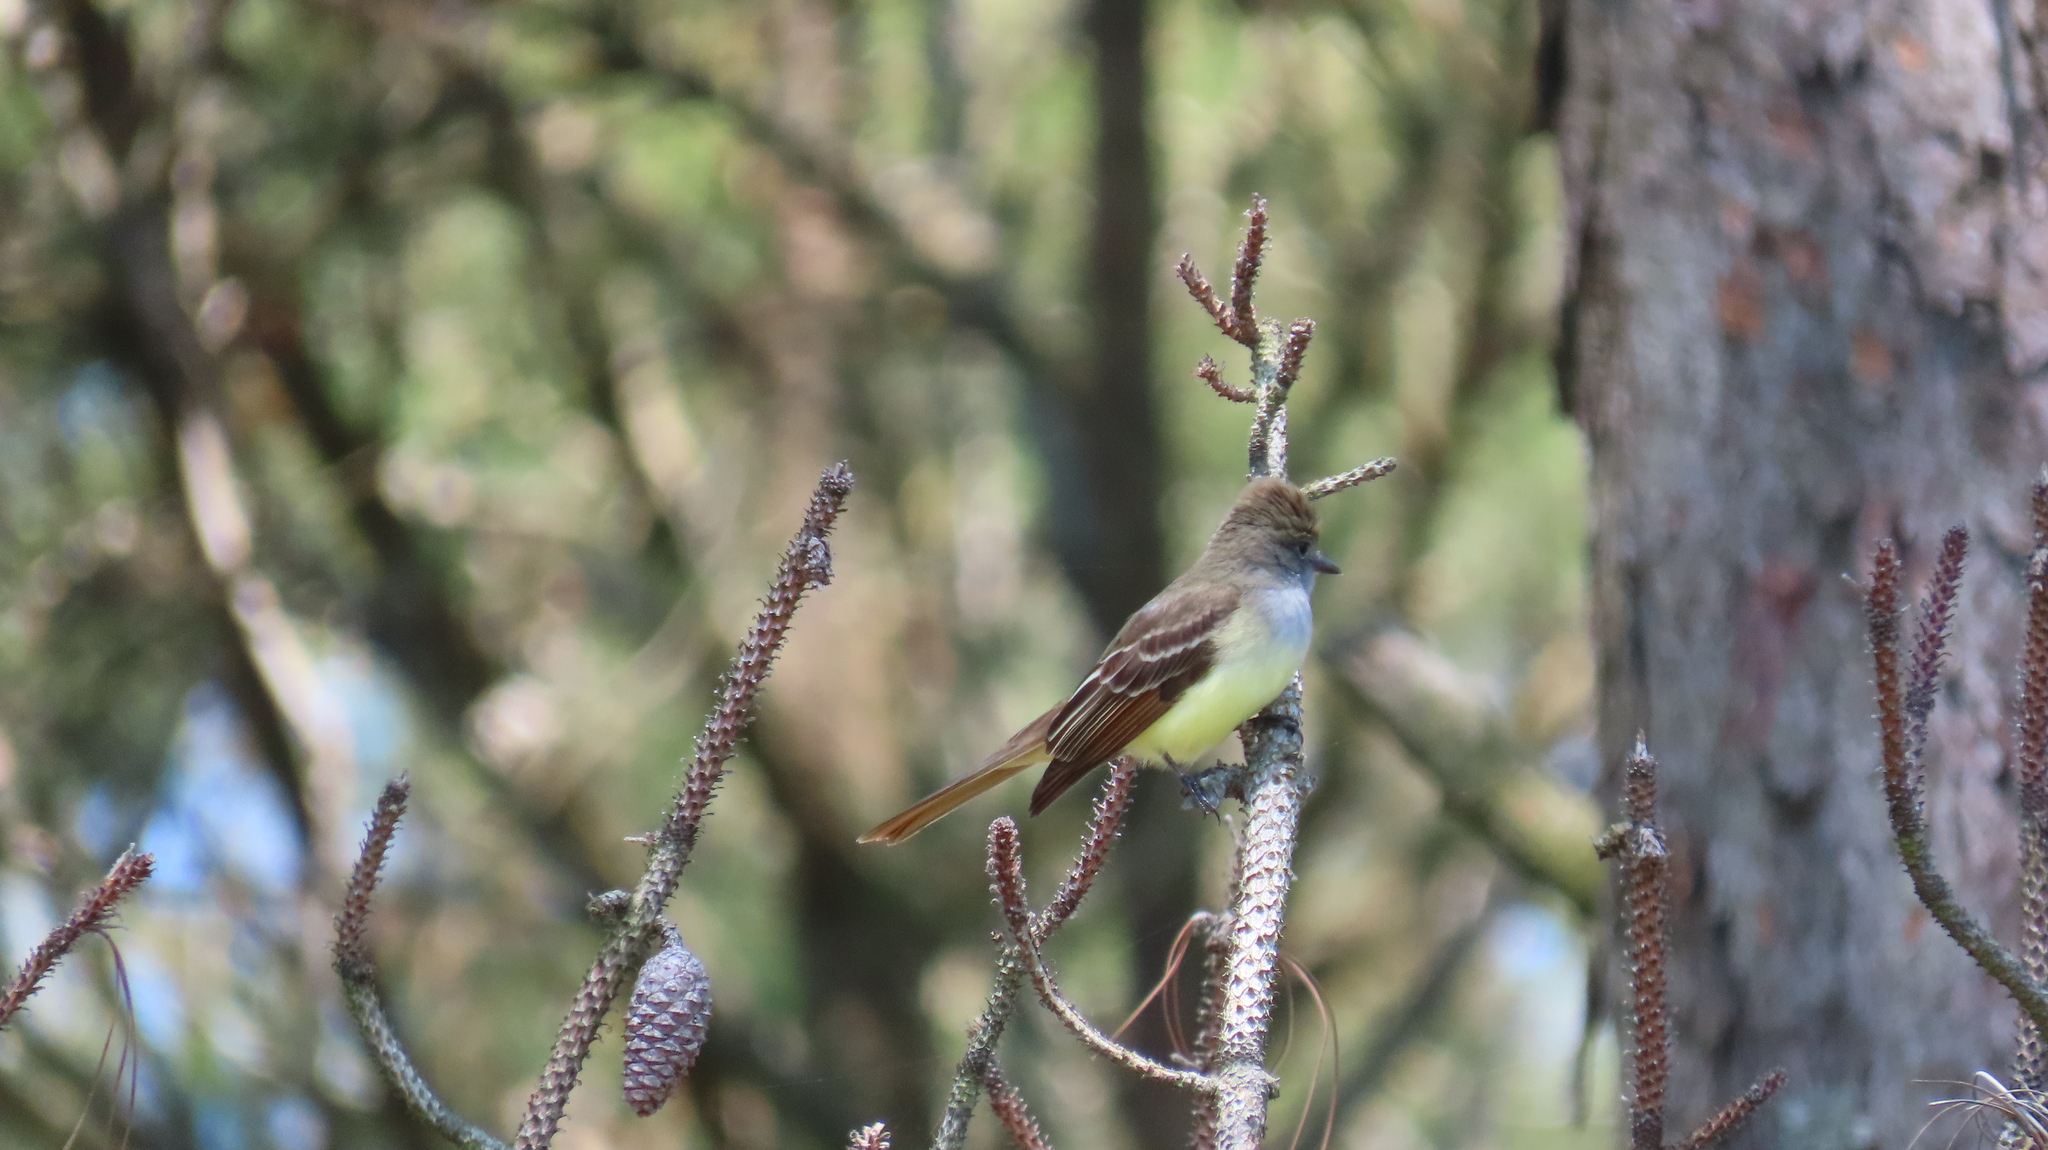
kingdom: Animalia
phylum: Chordata
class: Aves
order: Passeriformes
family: Tyrannidae
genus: Myiarchus
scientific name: Myiarchus crinitus
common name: Great crested flycatcher
